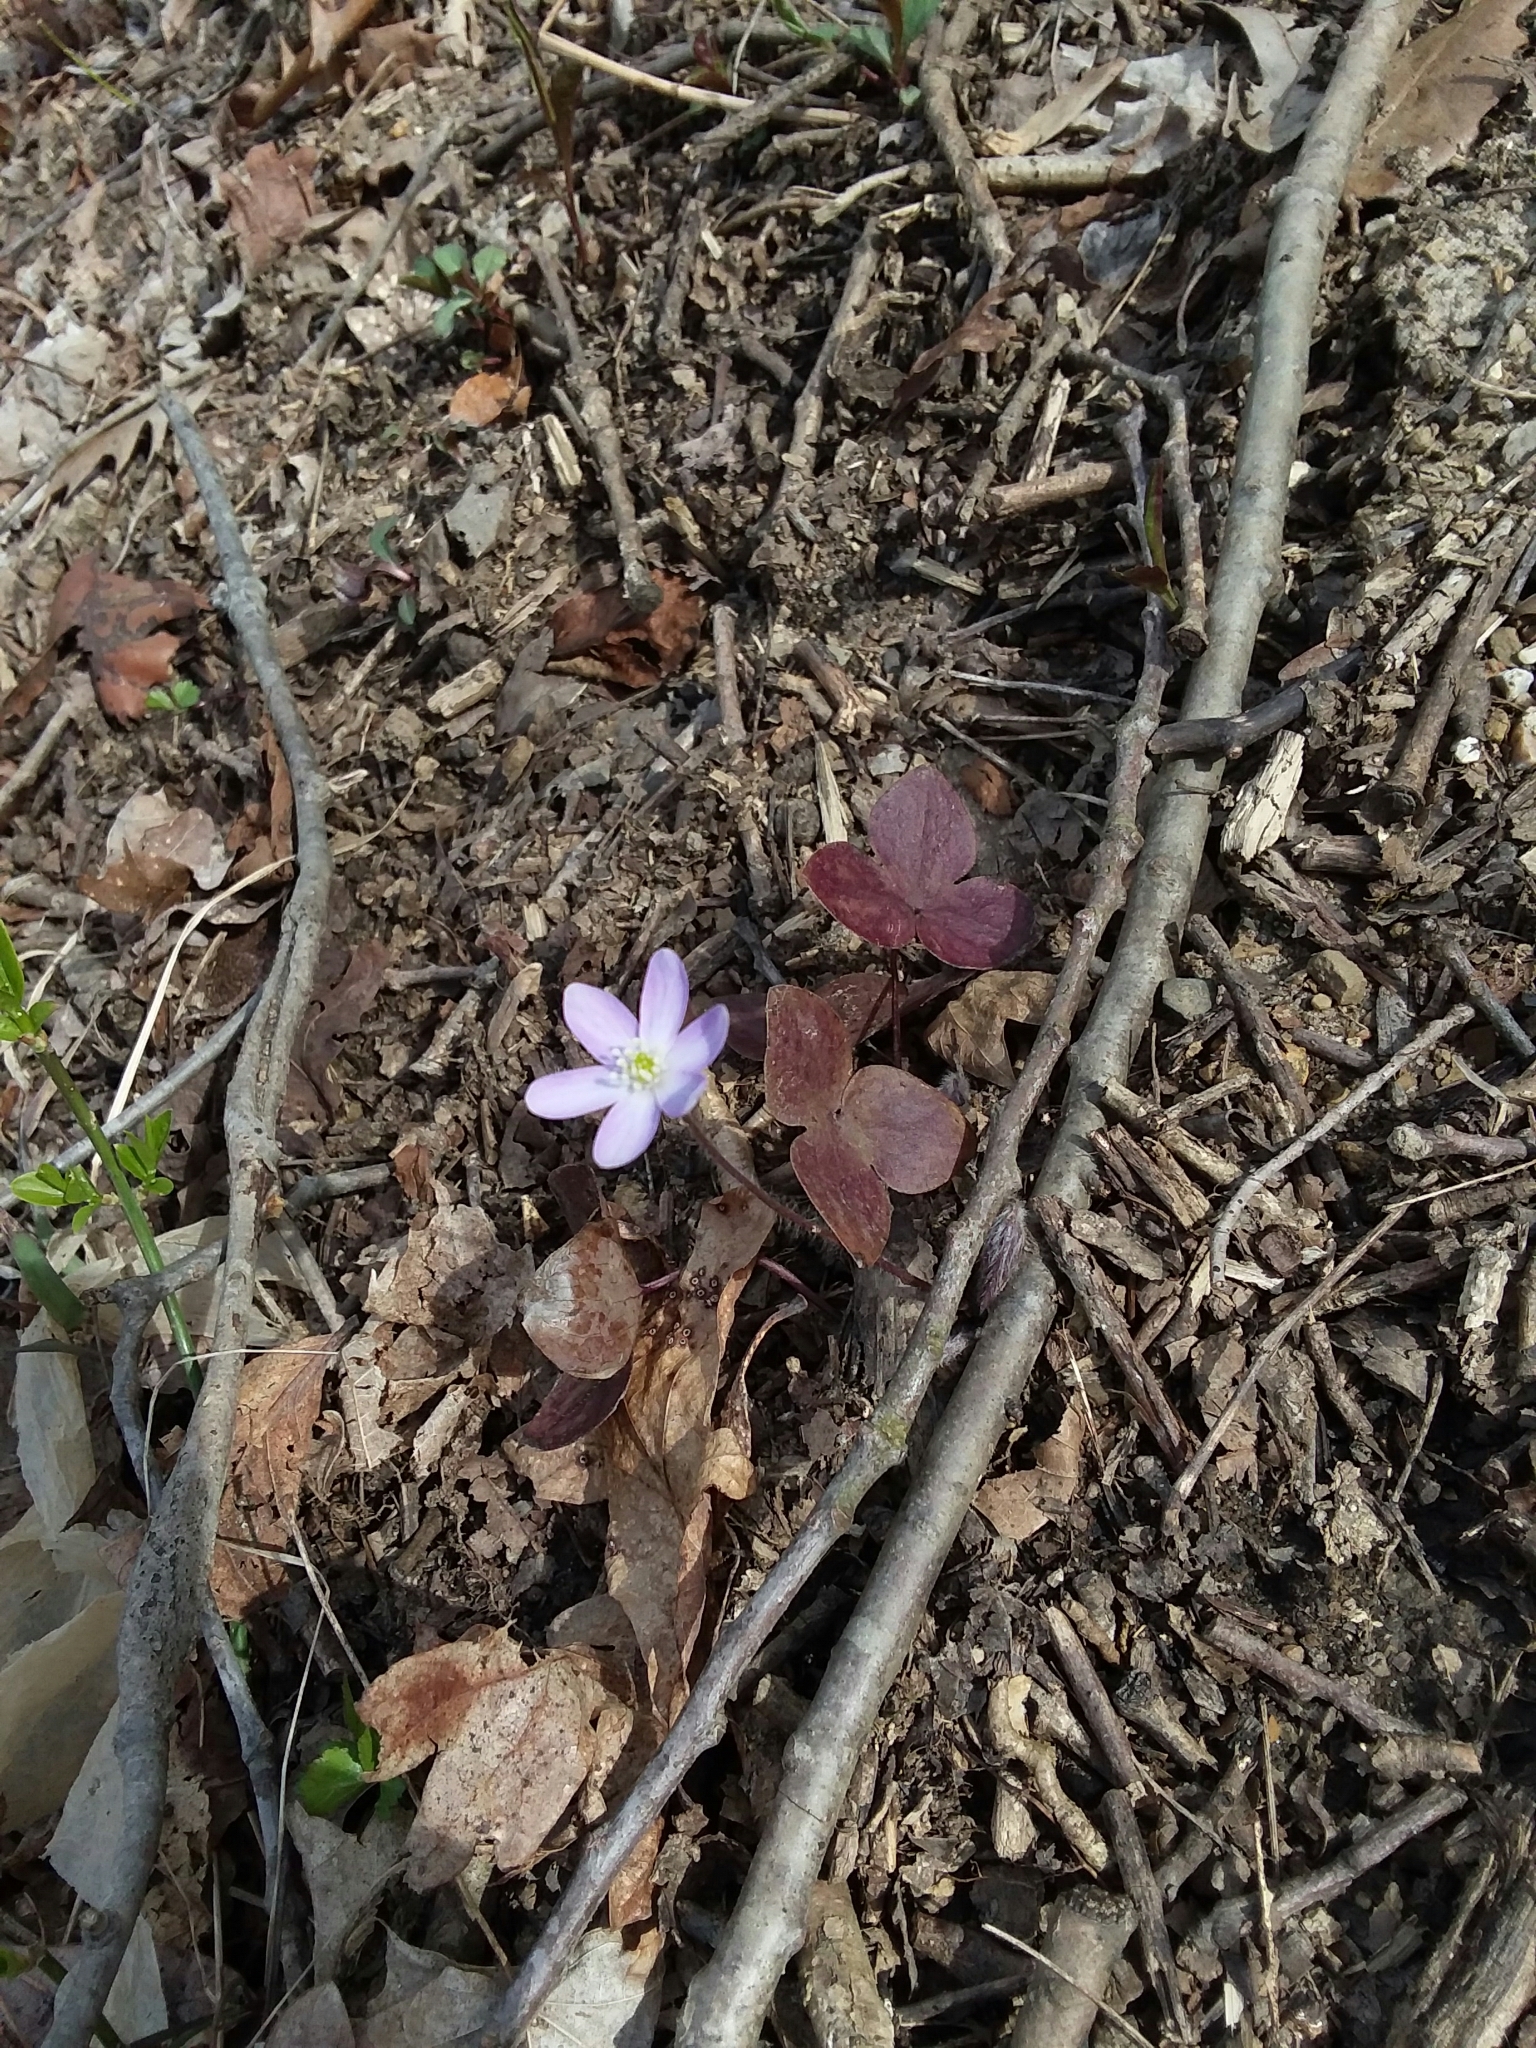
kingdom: Plantae
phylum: Tracheophyta
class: Magnoliopsida
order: Ranunculales
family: Ranunculaceae
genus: Hepatica
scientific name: Hepatica acutiloba
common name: Sharp-lobed hepatica
